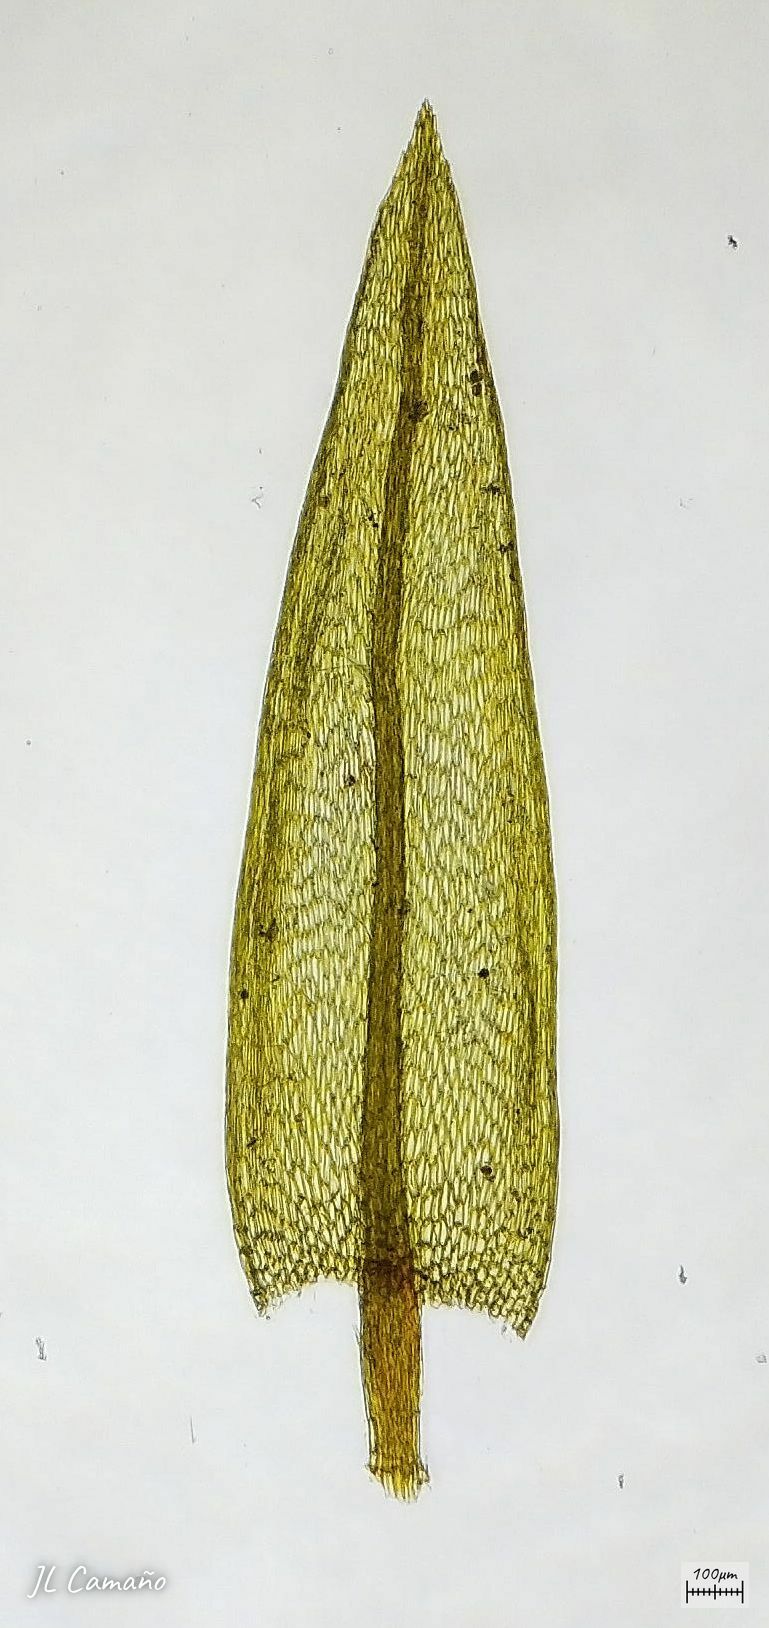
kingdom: Plantae
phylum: Bryophyta
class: Bryopsida
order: Bryales
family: Bryaceae
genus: Imbribryum
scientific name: Imbribryum alpinum
